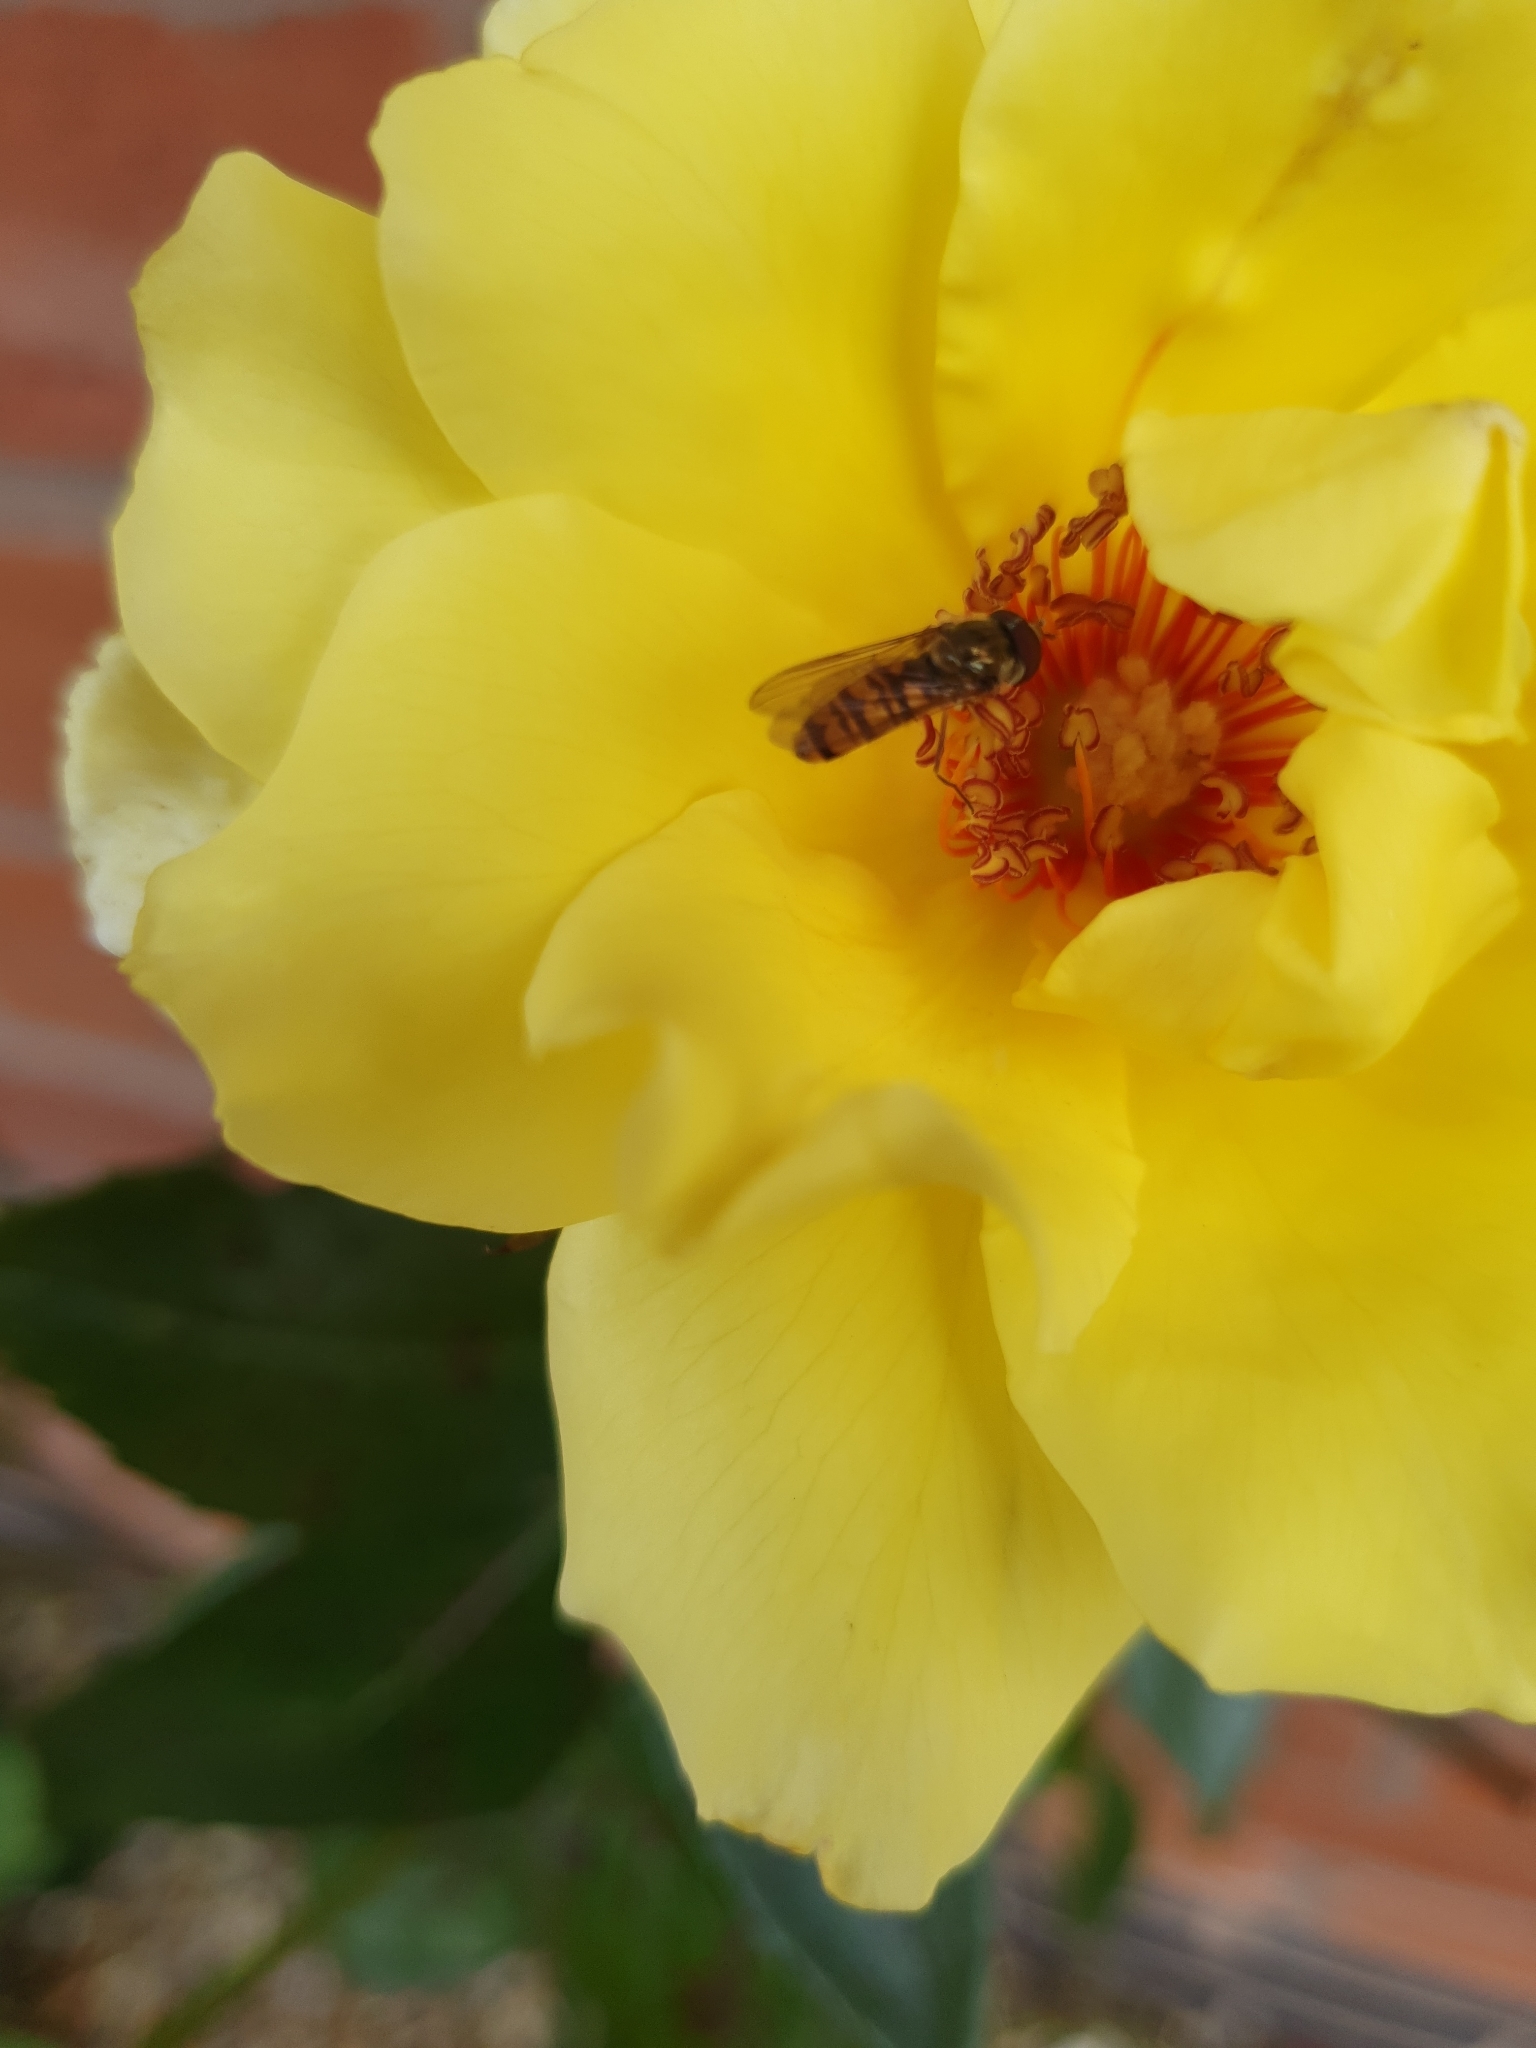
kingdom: Animalia
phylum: Arthropoda
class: Insecta
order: Diptera
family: Syrphidae
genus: Episyrphus
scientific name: Episyrphus balteatus
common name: Marmalade hoverfly
